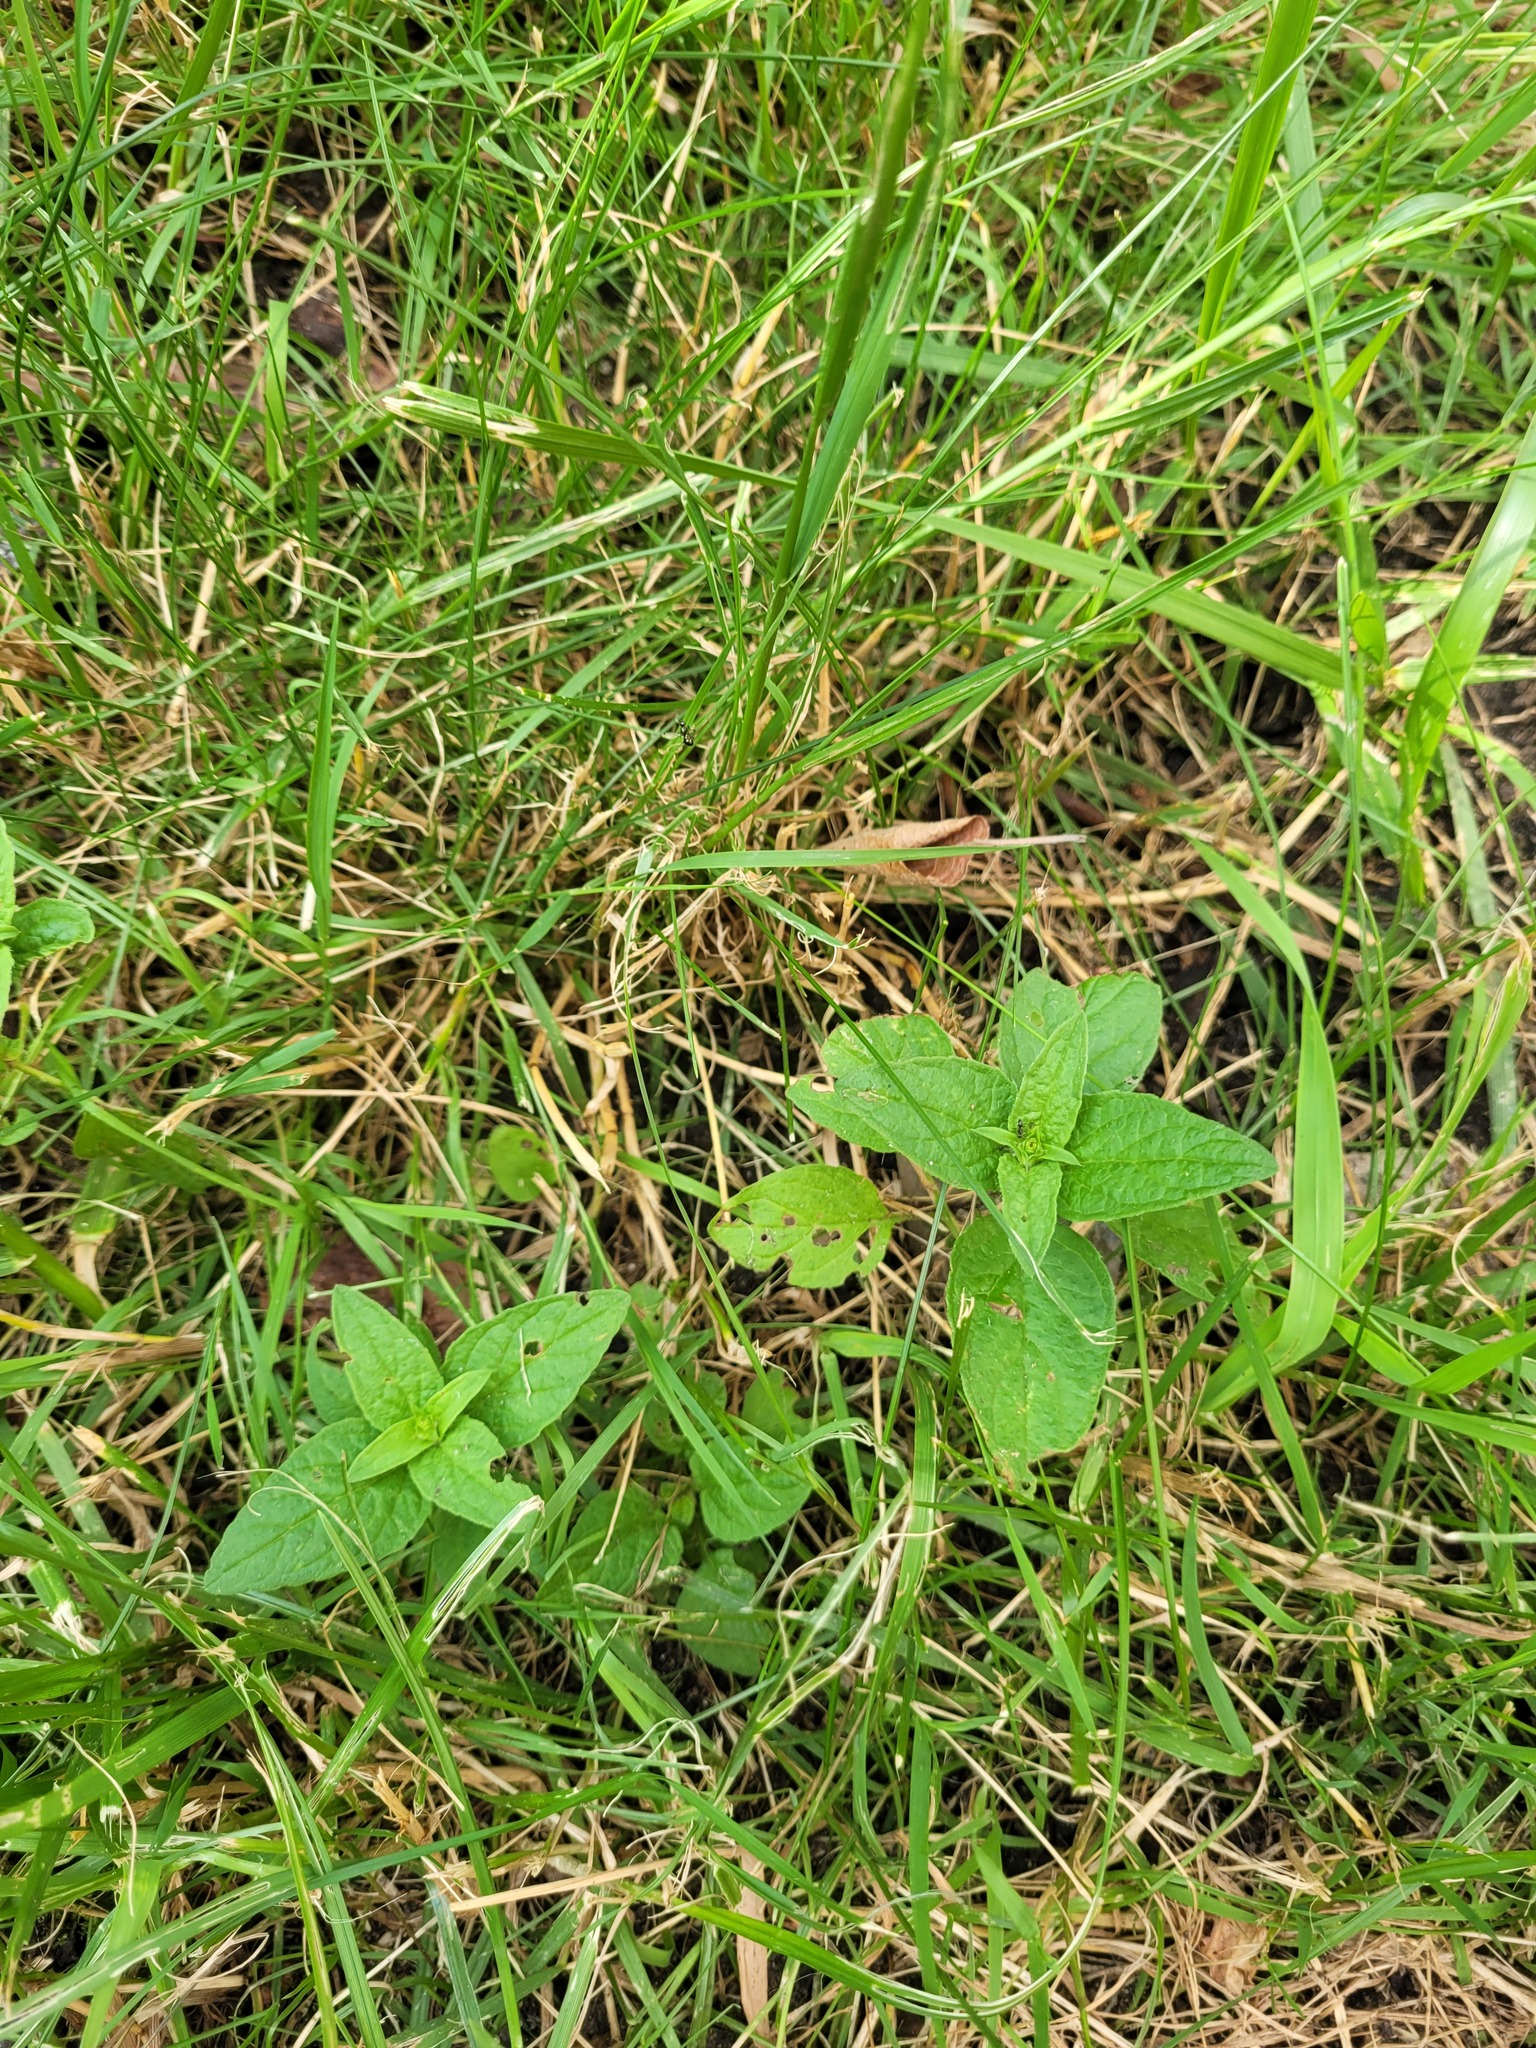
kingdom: Plantae
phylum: Tracheophyta
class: Magnoliopsida
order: Lamiales
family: Lamiaceae
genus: Prunella
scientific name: Prunella vulgaris
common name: Heal-all
